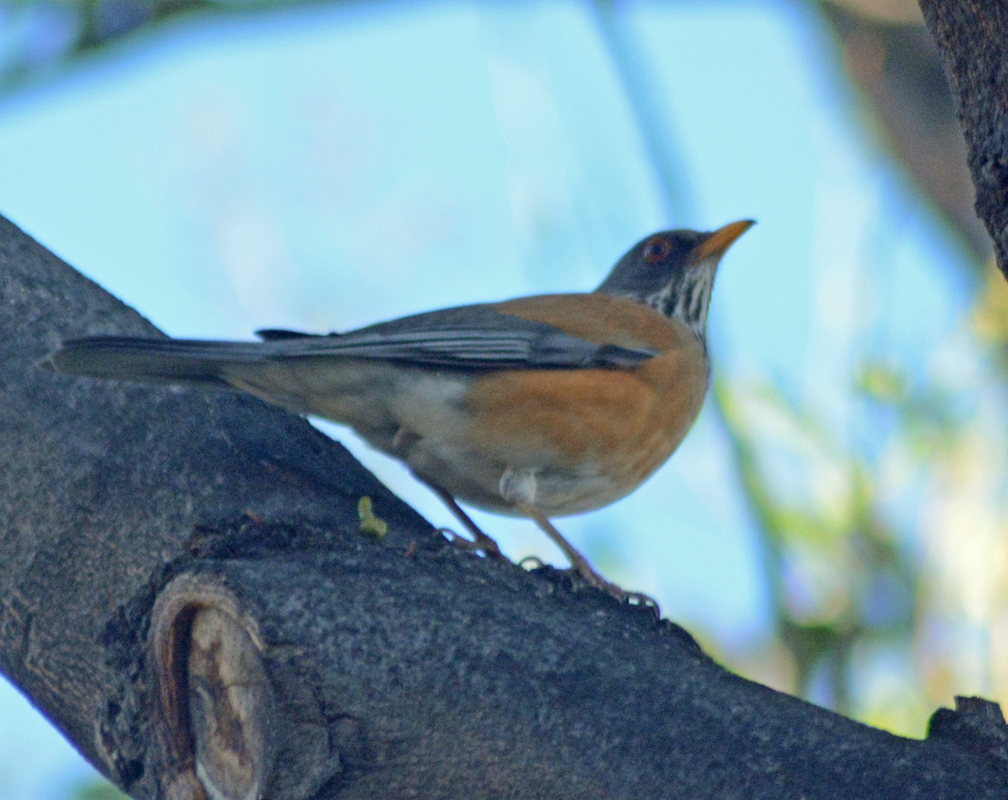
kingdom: Animalia
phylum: Chordata
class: Aves
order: Passeriformes
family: Turdidae
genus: Turdus
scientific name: Turdus rufopalliatus
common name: Rufous-backed robin
